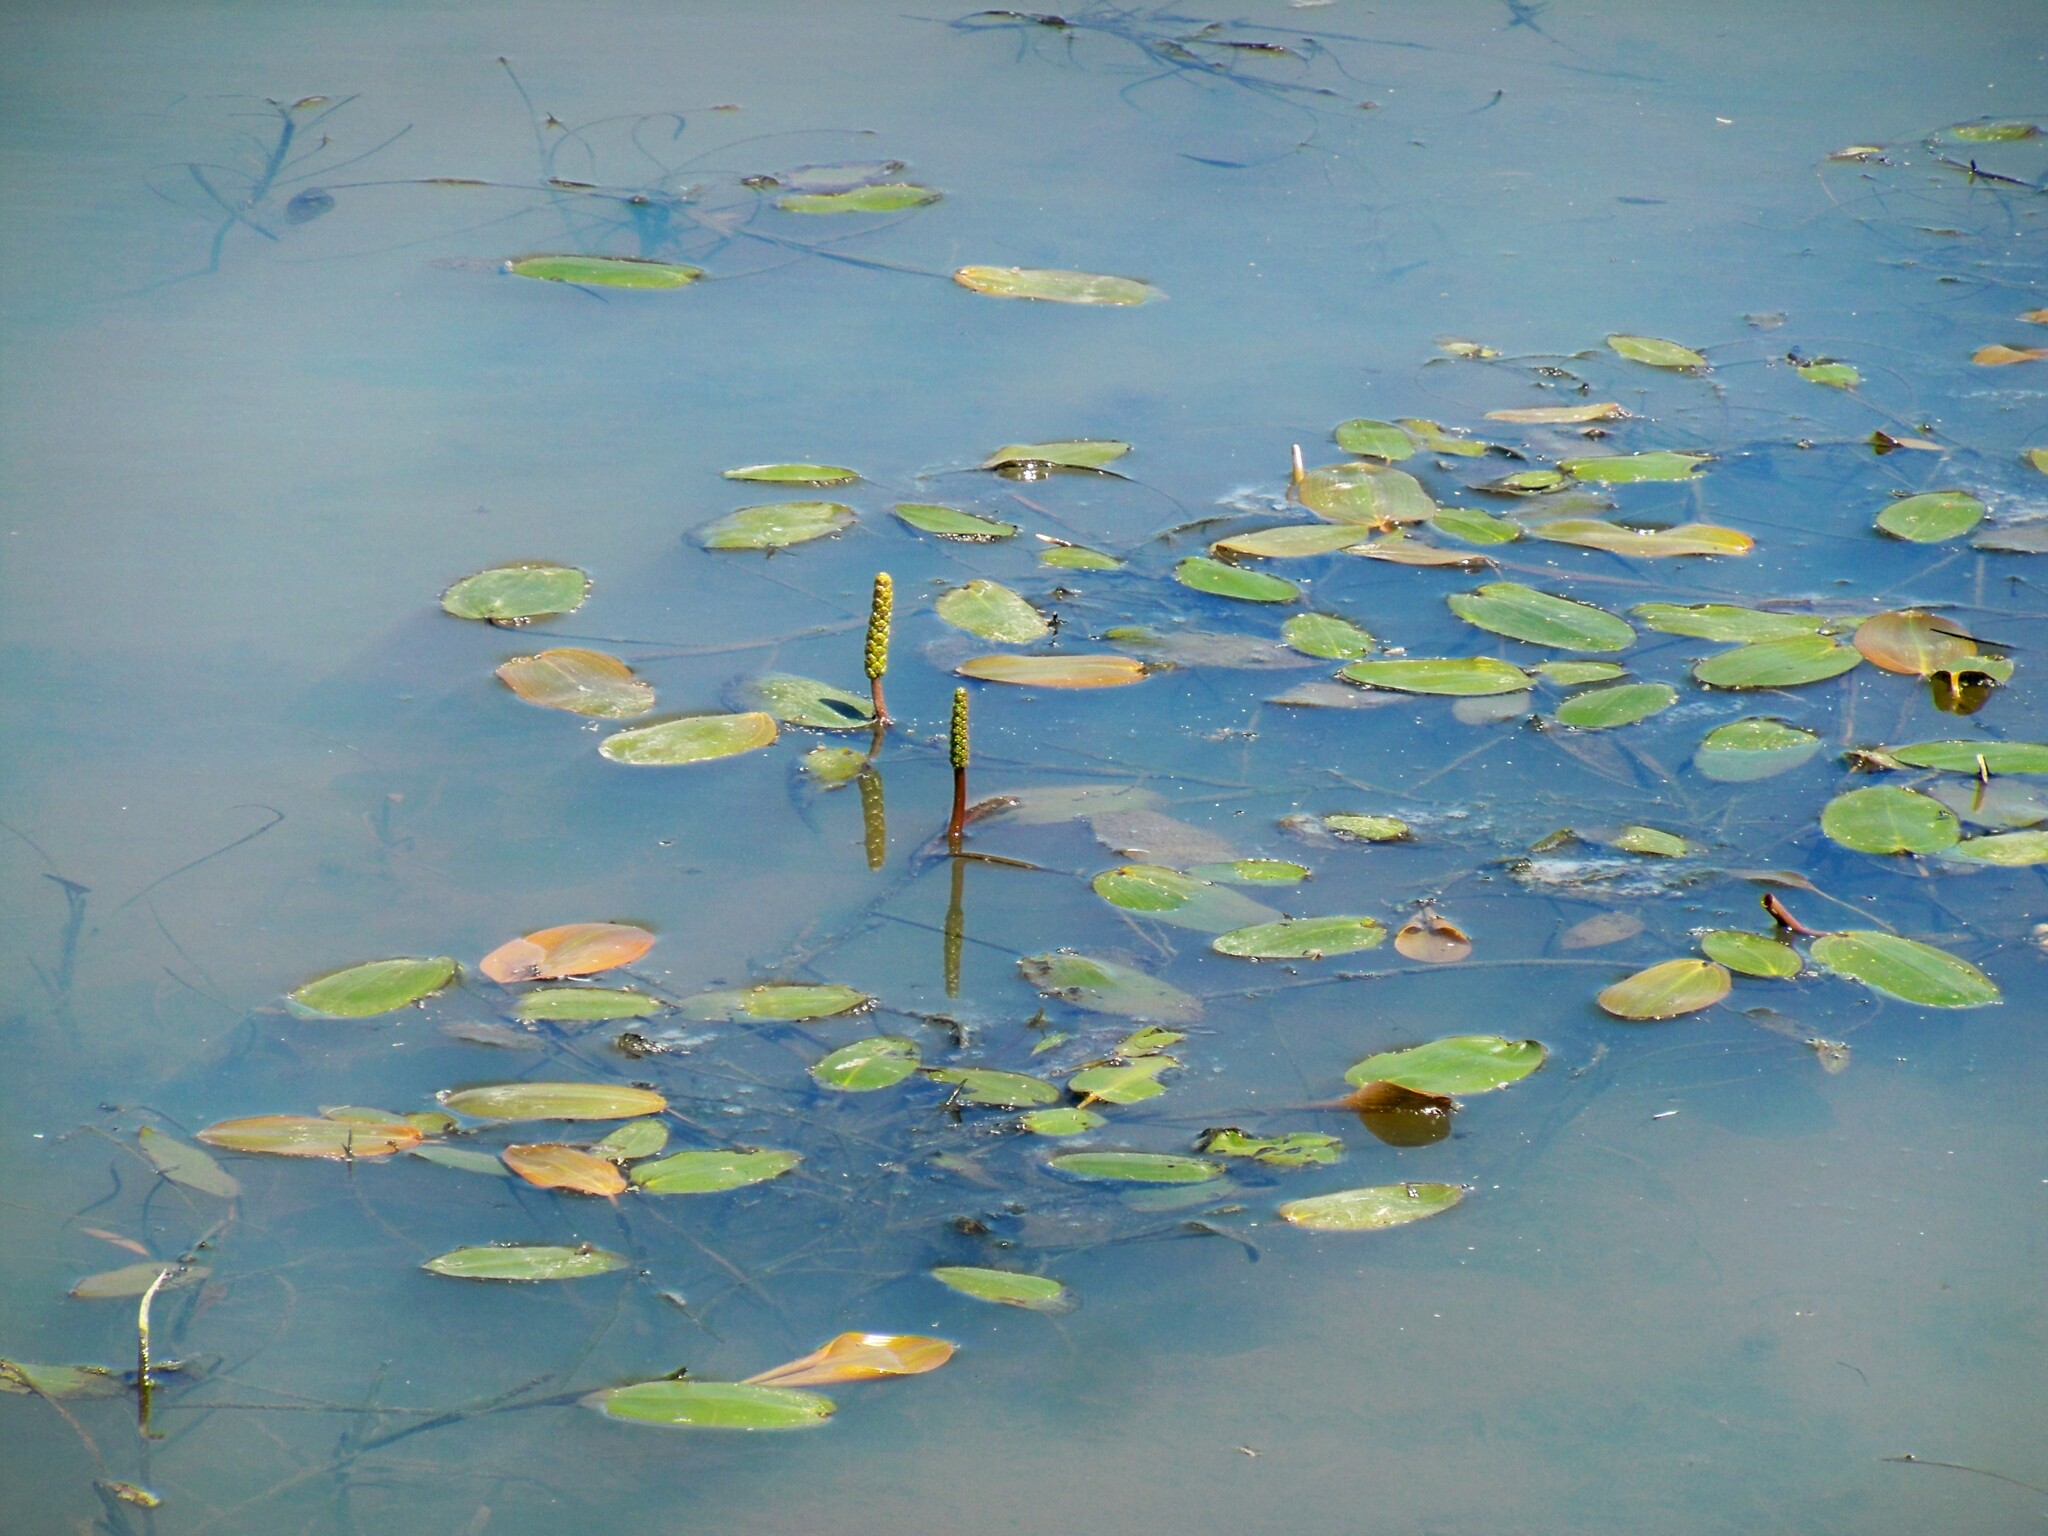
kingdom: Plantae
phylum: Tracheophyta
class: Liliopsida
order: Alismatales
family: Potamogetonaceae
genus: Potamogeton
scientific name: Potamogeton natans
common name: Broad-leaved pondweed
